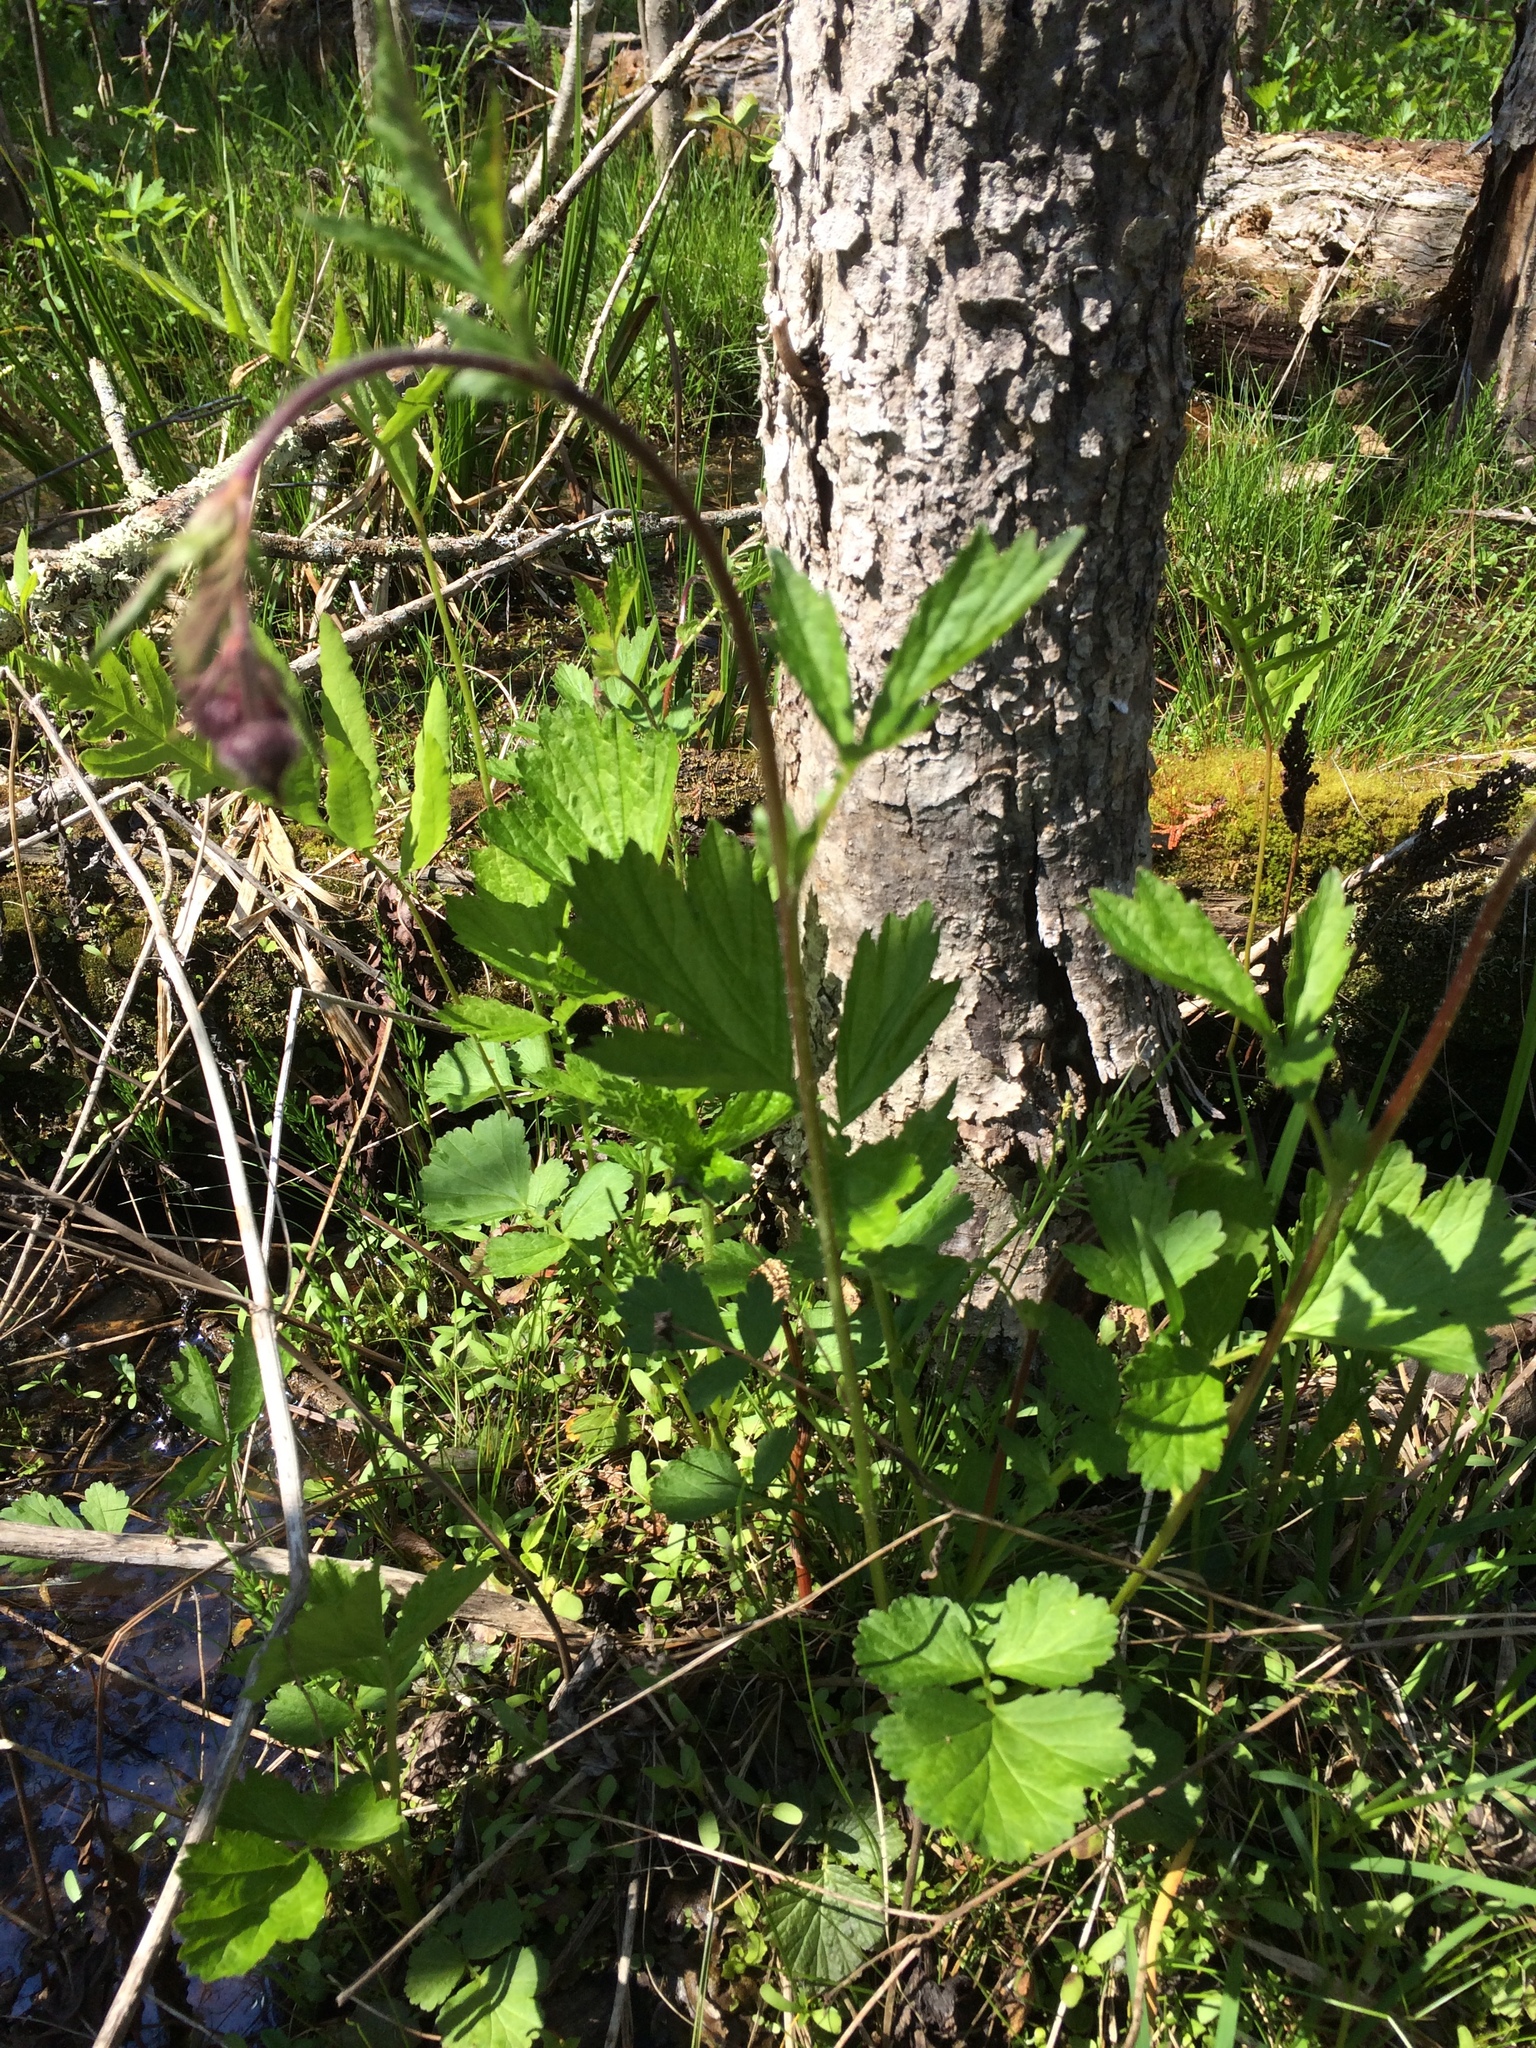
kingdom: Plantae
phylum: Tracheophyta
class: Magnoliopsida
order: Rosales
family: Rosaceae
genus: Geum
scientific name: Geum rivale
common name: Water avens
